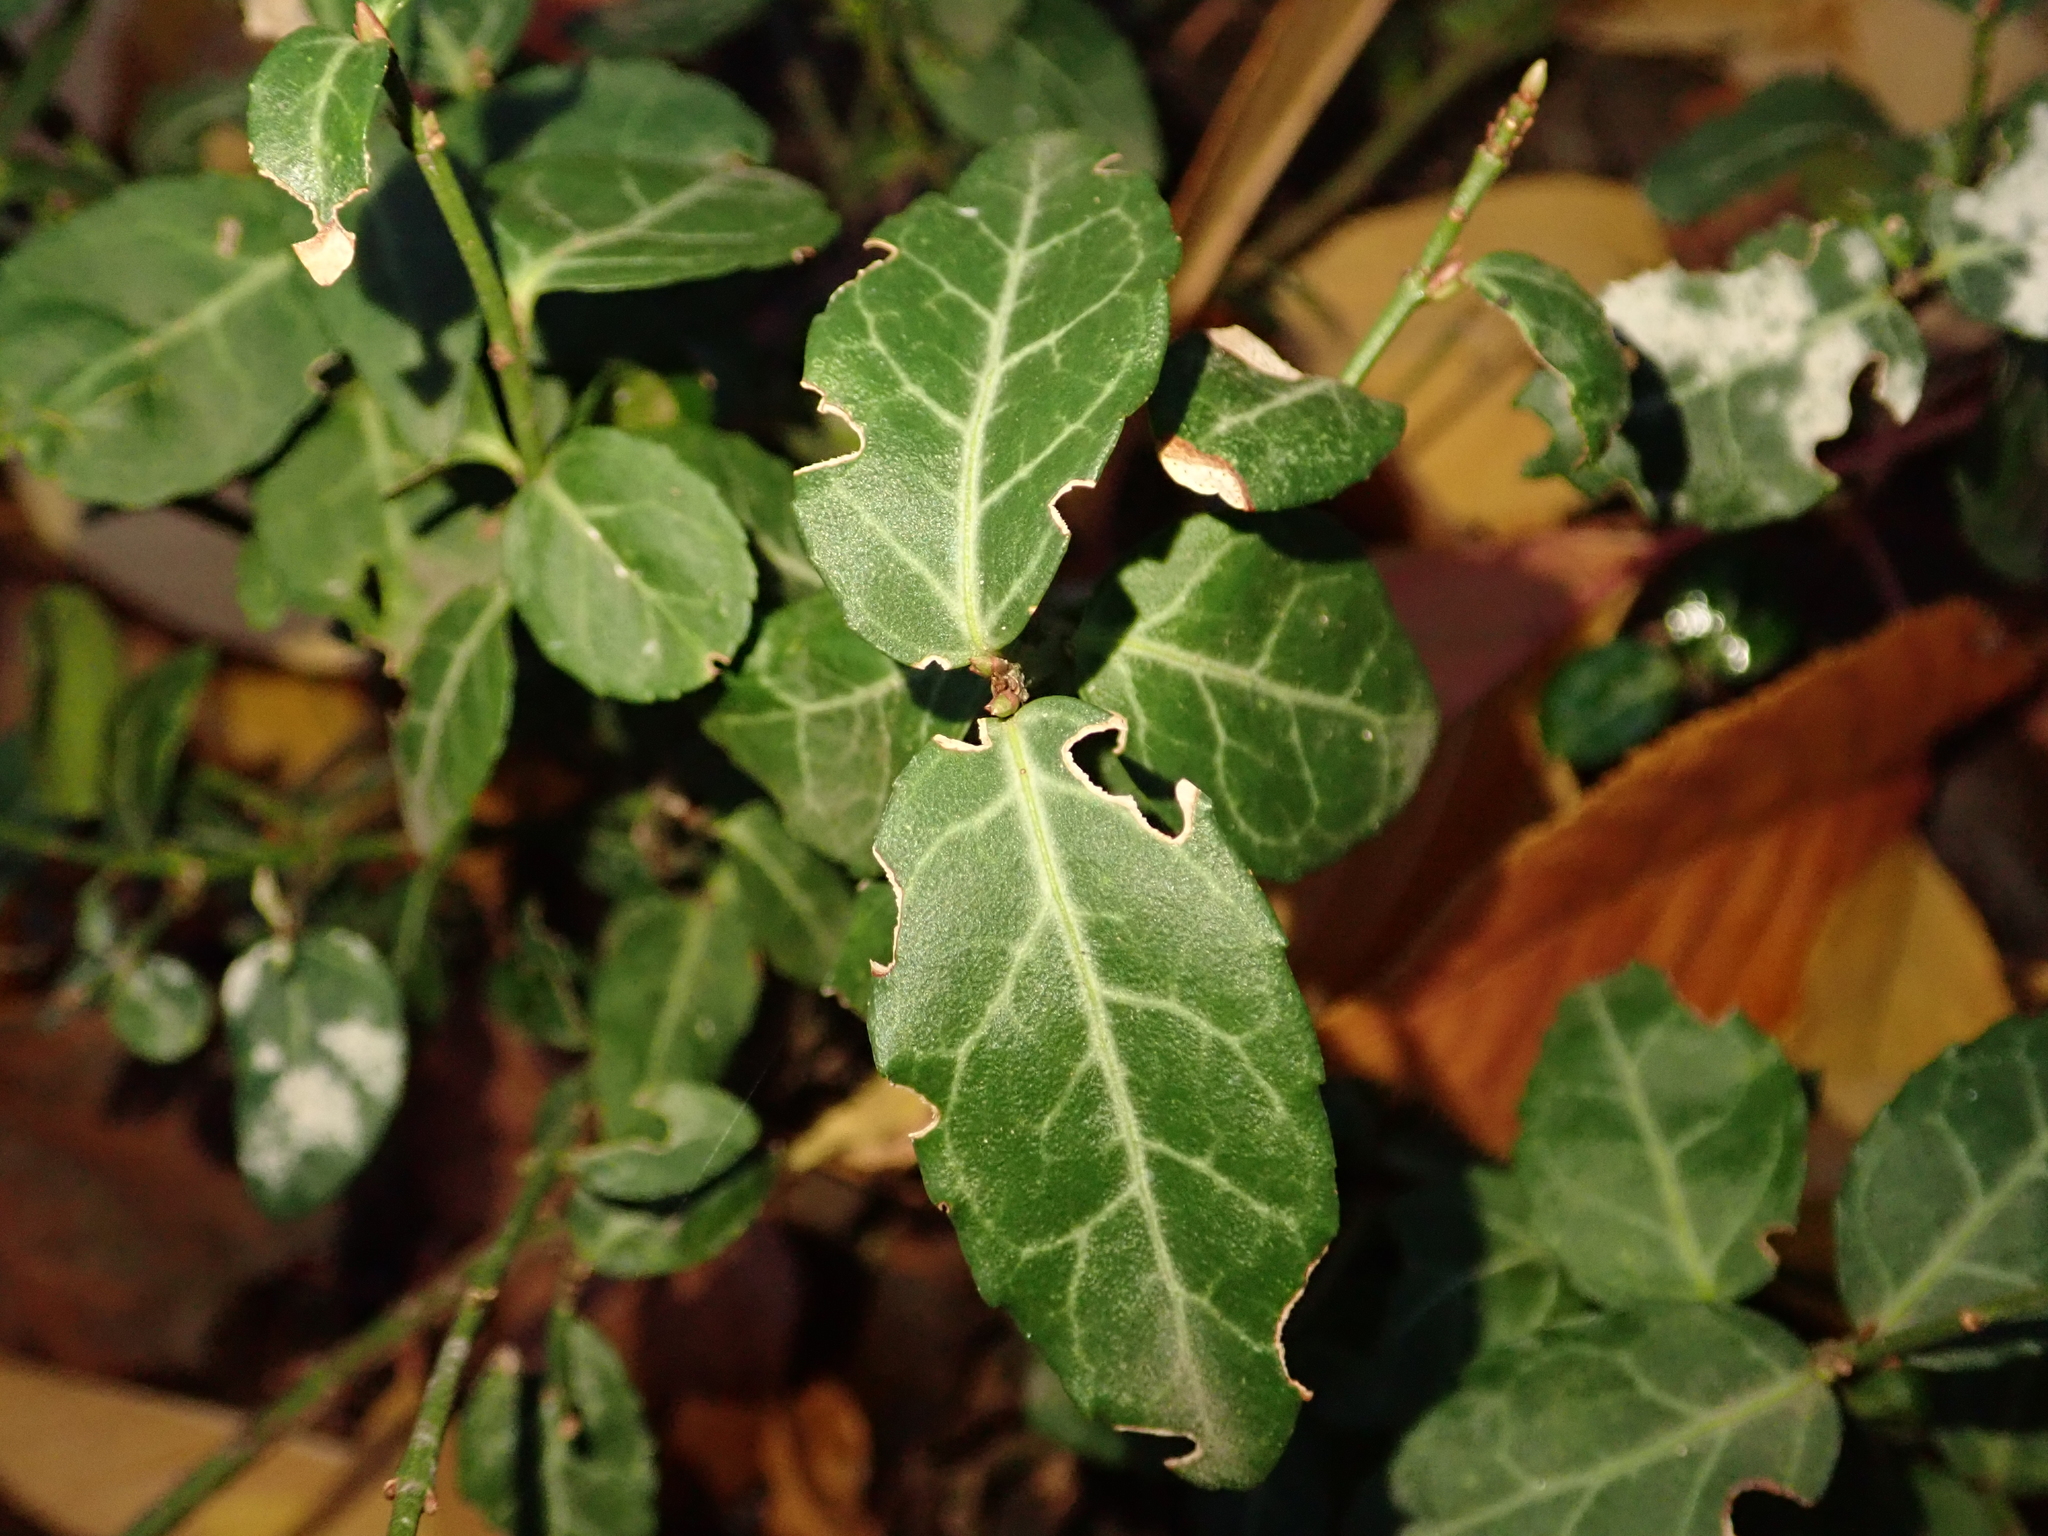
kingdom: Plantae
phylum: Tracheophyta
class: Magnoliopsida
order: Celastrales
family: Celastraceae
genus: Euonymus
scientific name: Euonymus fortunei
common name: Climbing euonymus
